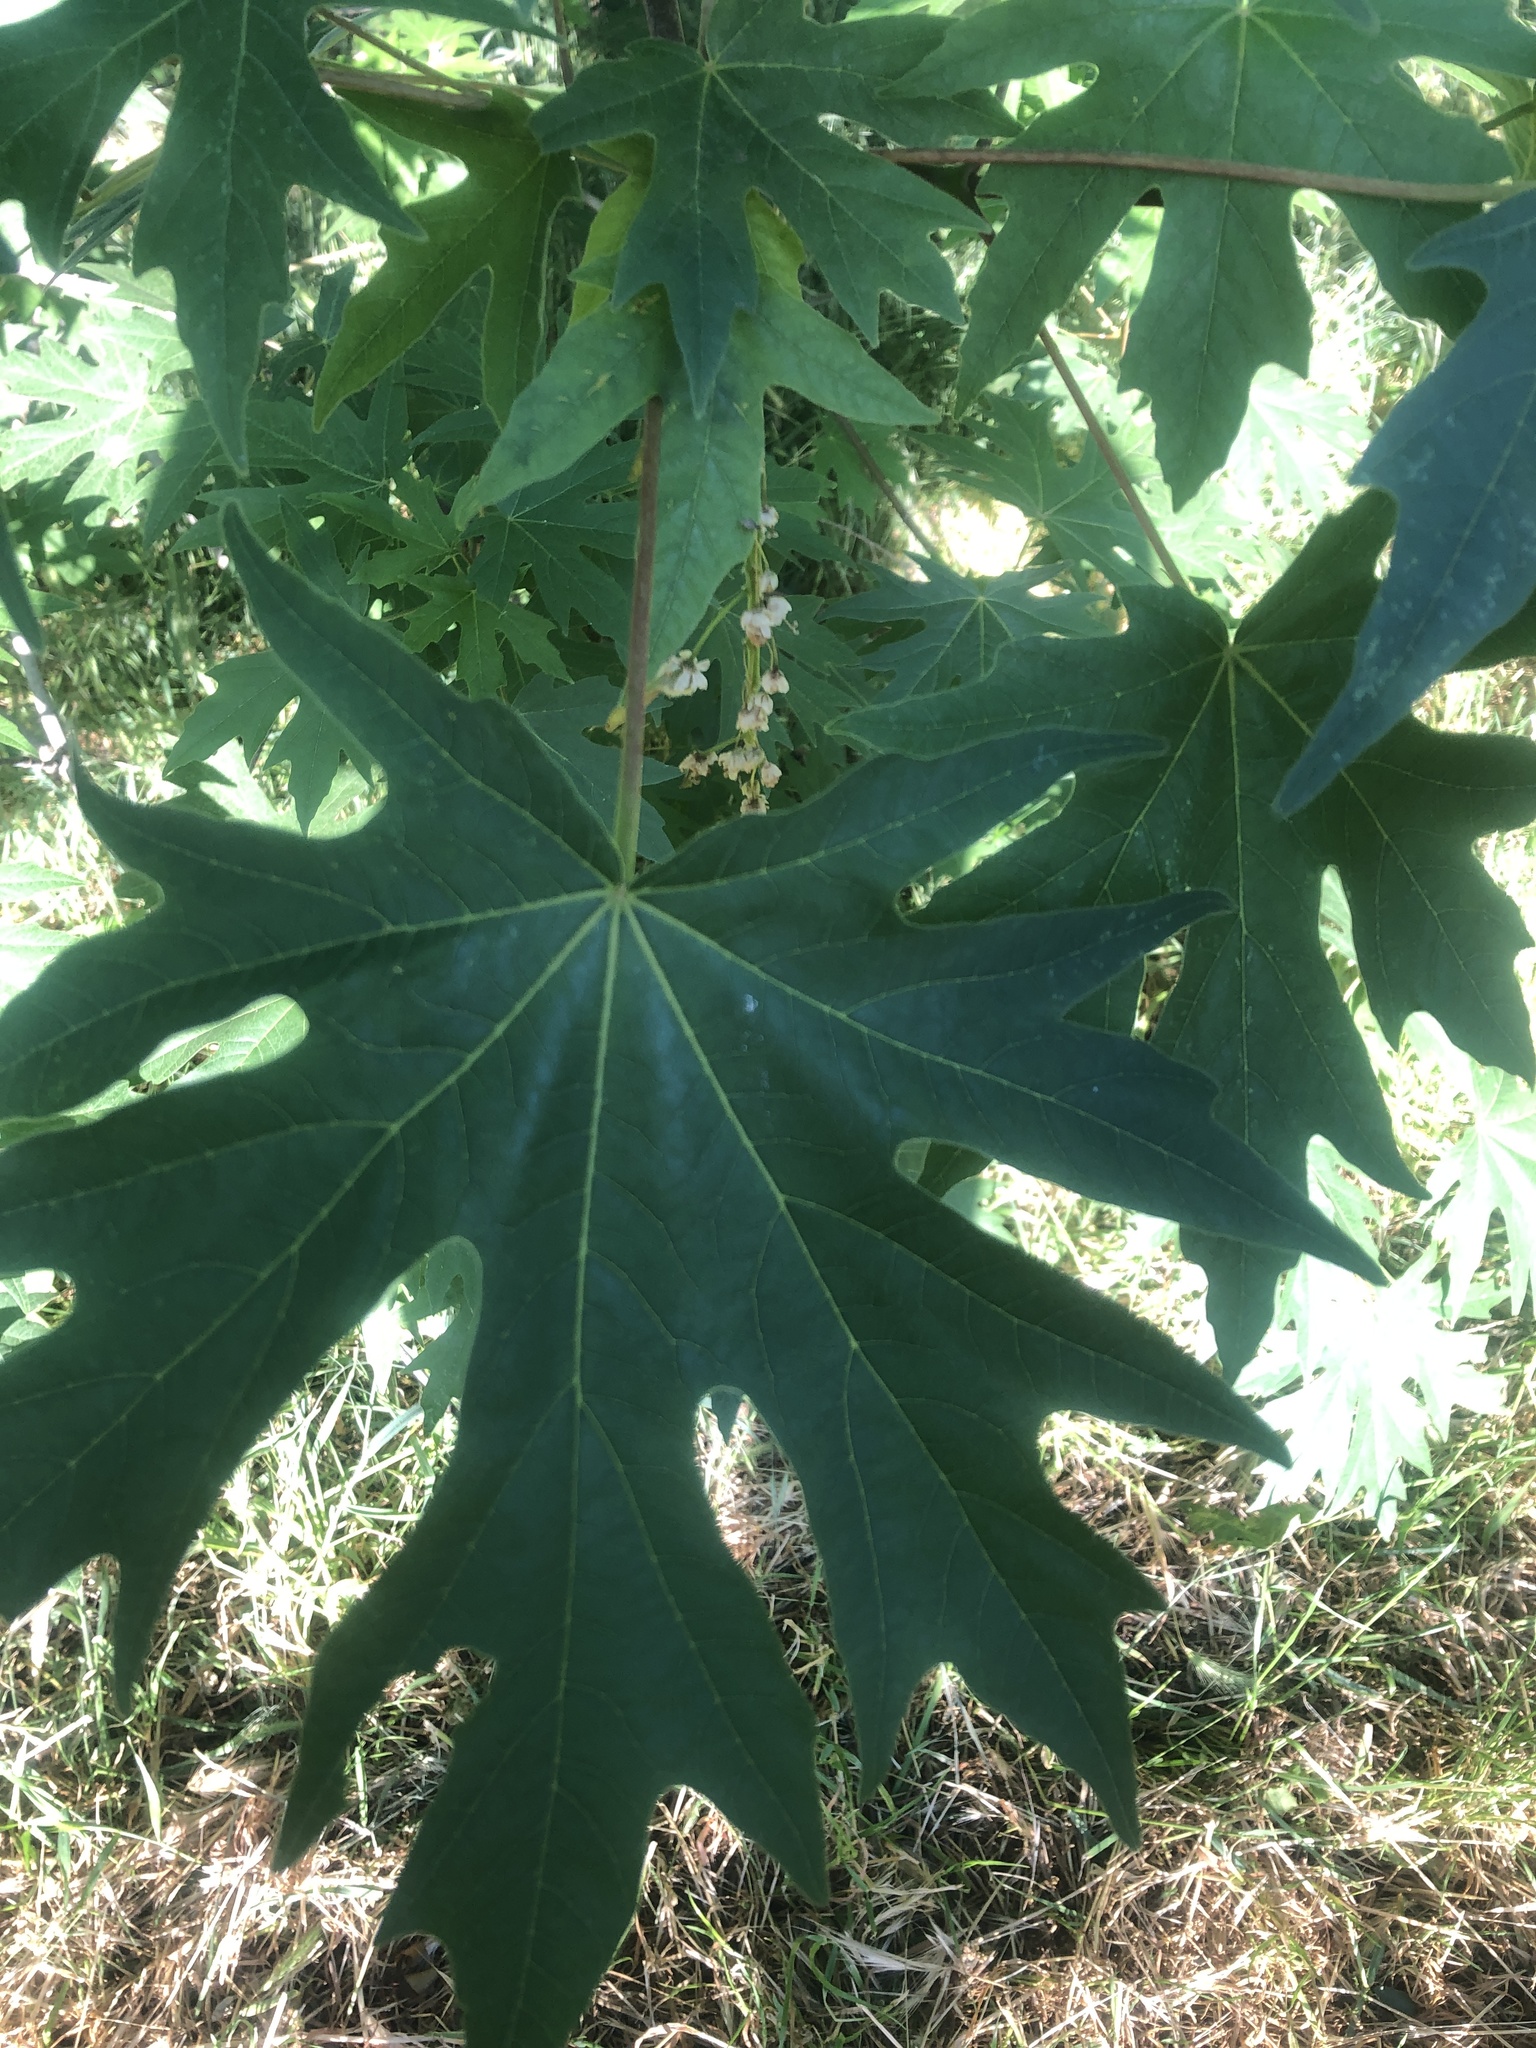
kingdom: Plantae
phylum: Tracheophyta
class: Magnoliopsida
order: Sapindales
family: Sapindaceae
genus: Acer
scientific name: Acer macrophyllum
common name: Oregon maple
